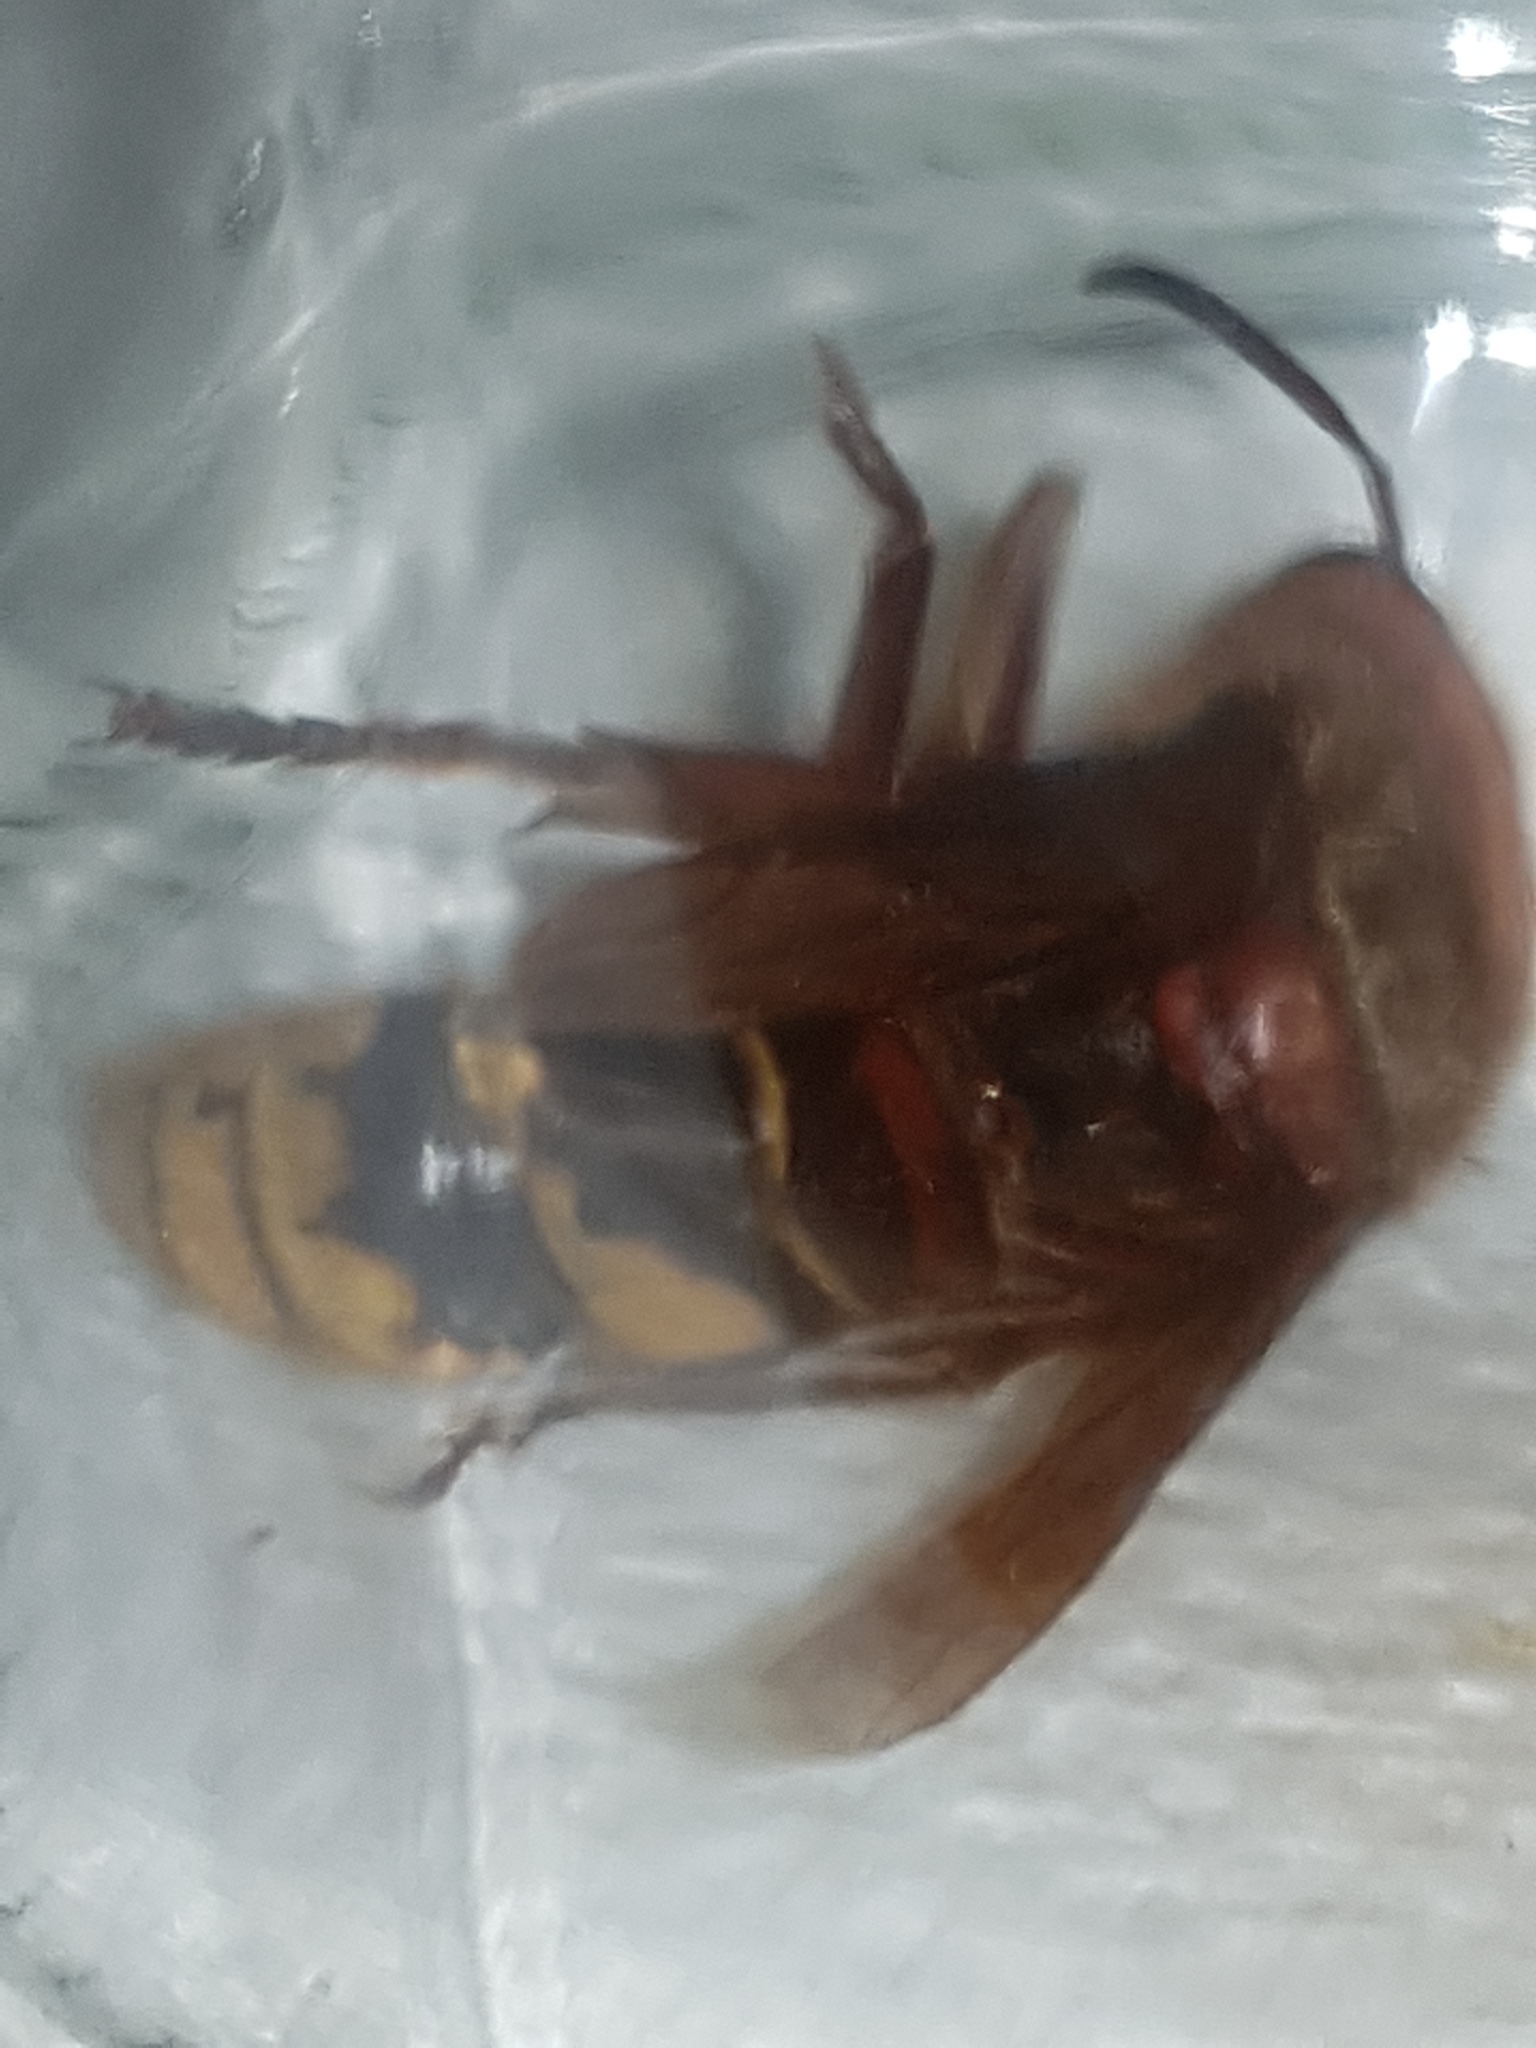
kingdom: Animalia
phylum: Arthropoda
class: Insecta
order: Hymenoptera
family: Vespidae
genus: Vespa
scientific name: Vespa crabro
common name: Hornet
